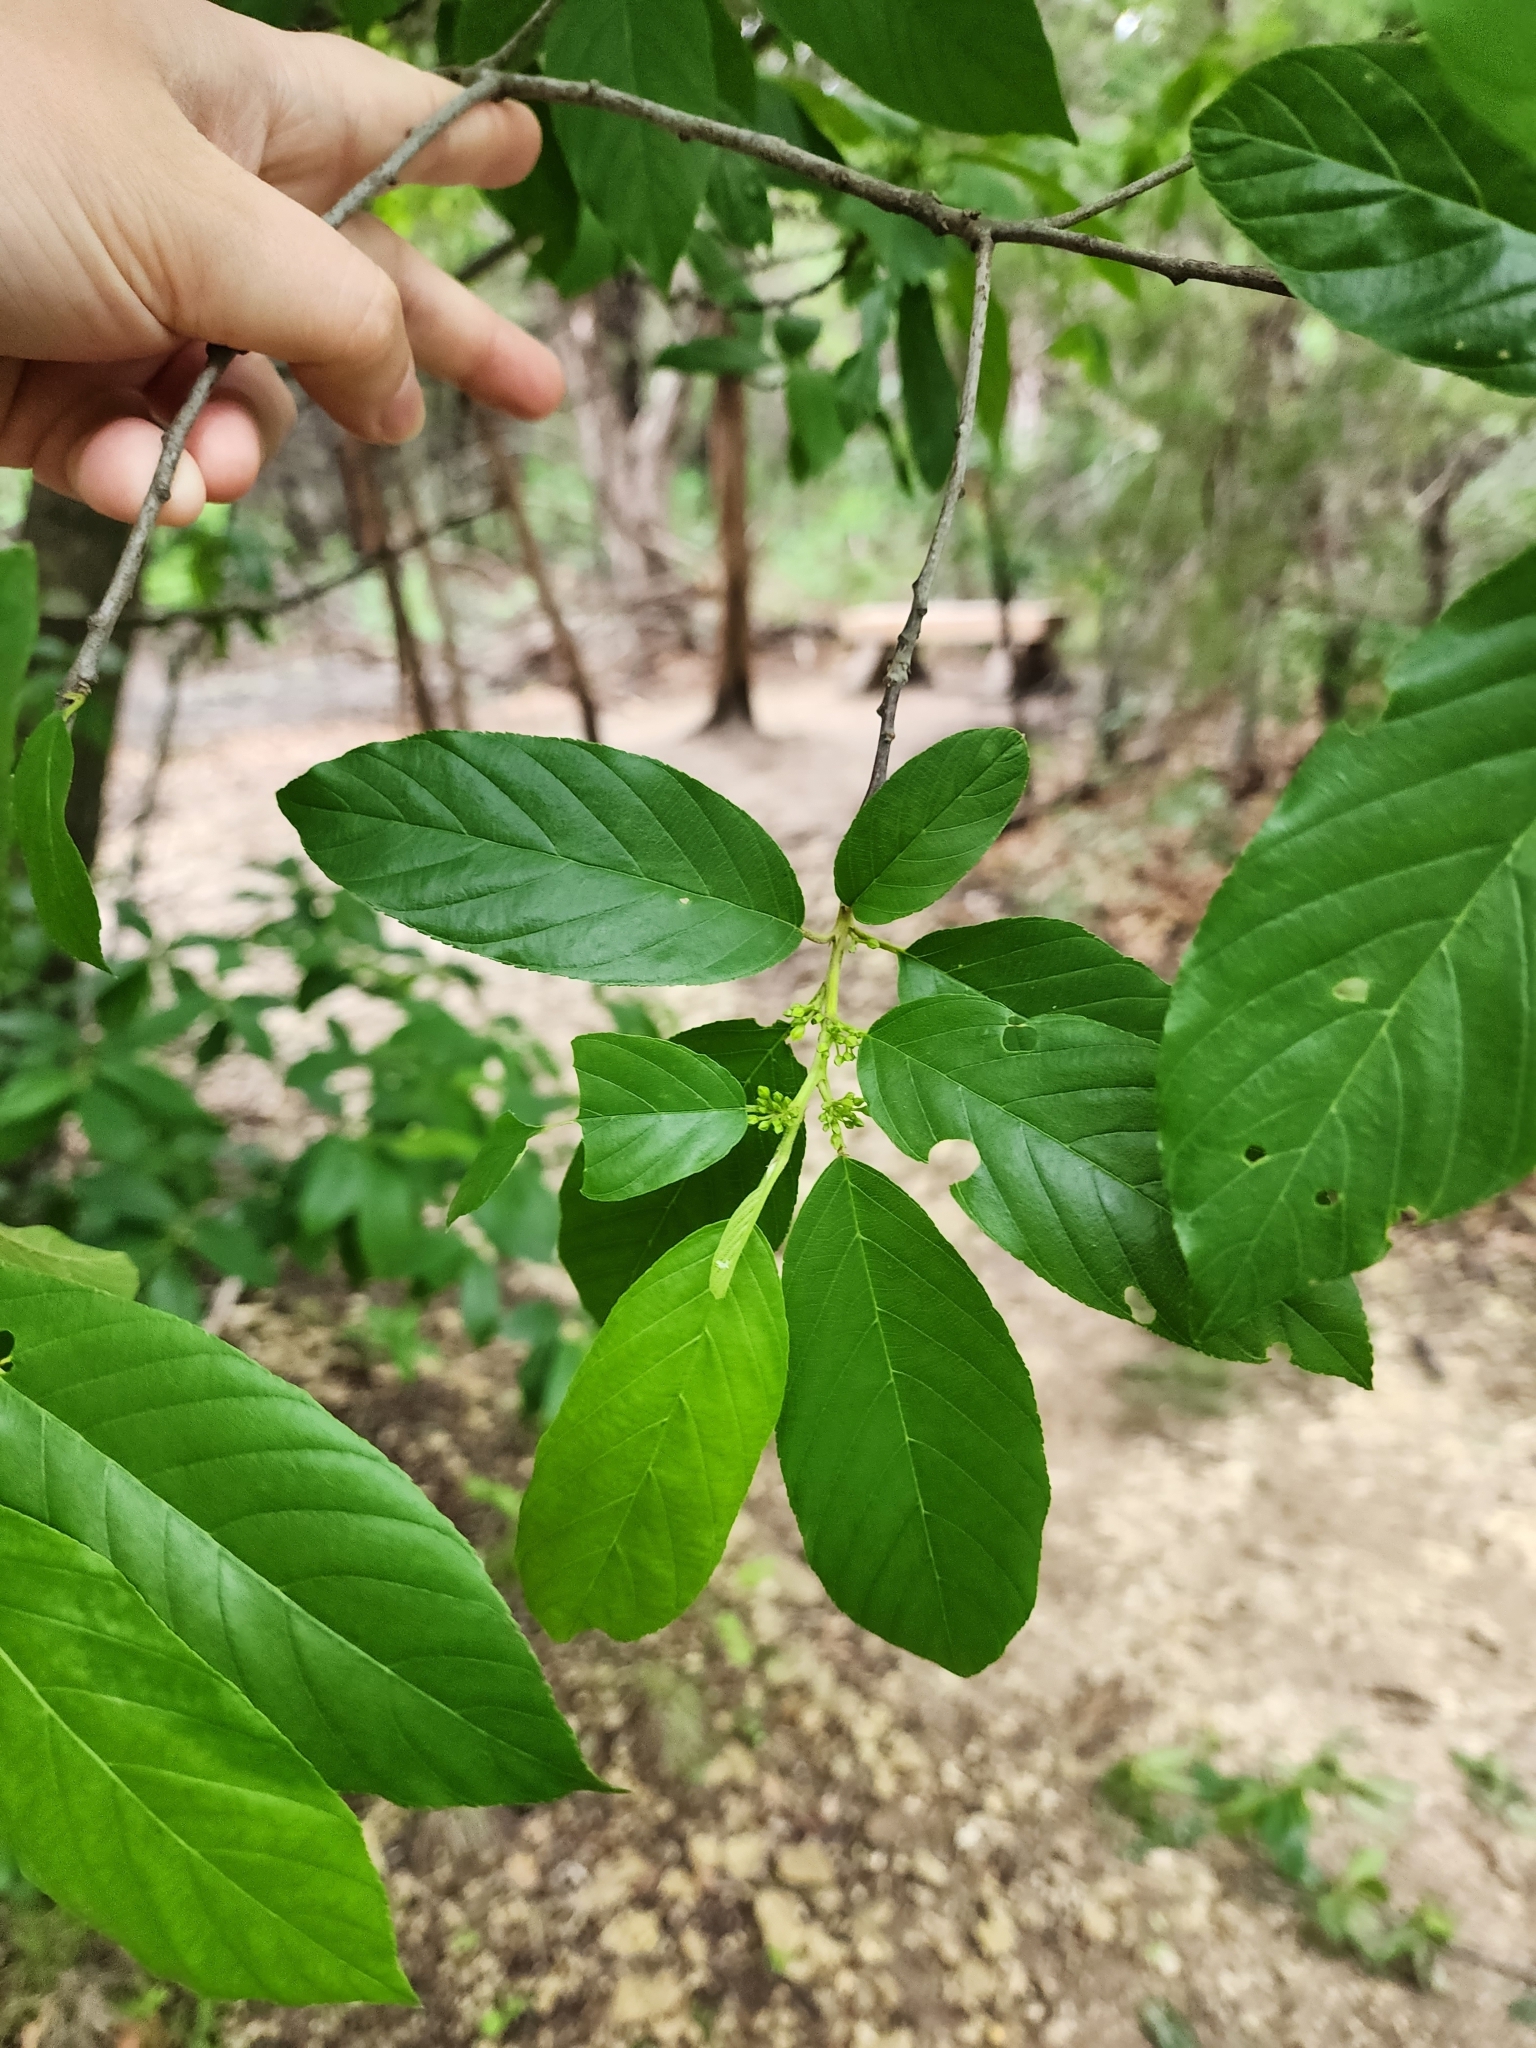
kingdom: Plantae
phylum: Tracheophyta
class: Magnoliopsida
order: Rosales
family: Rhamnaceae
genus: Frangula
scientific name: Frangula caroliniana
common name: Carolina buckthorn
